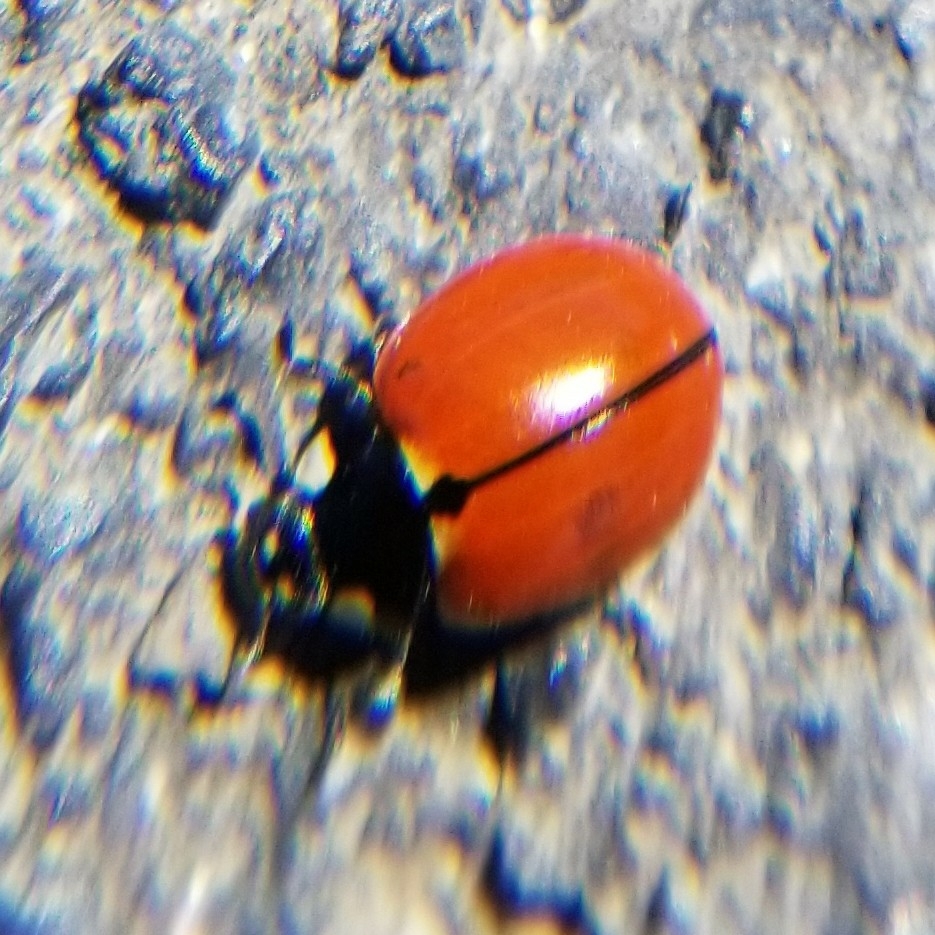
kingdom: Animalia
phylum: Arthropoda
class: Insecta
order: Coleoptera
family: Coccinellidae
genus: Coccinella
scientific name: Coccinella californica
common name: Lady beetle
